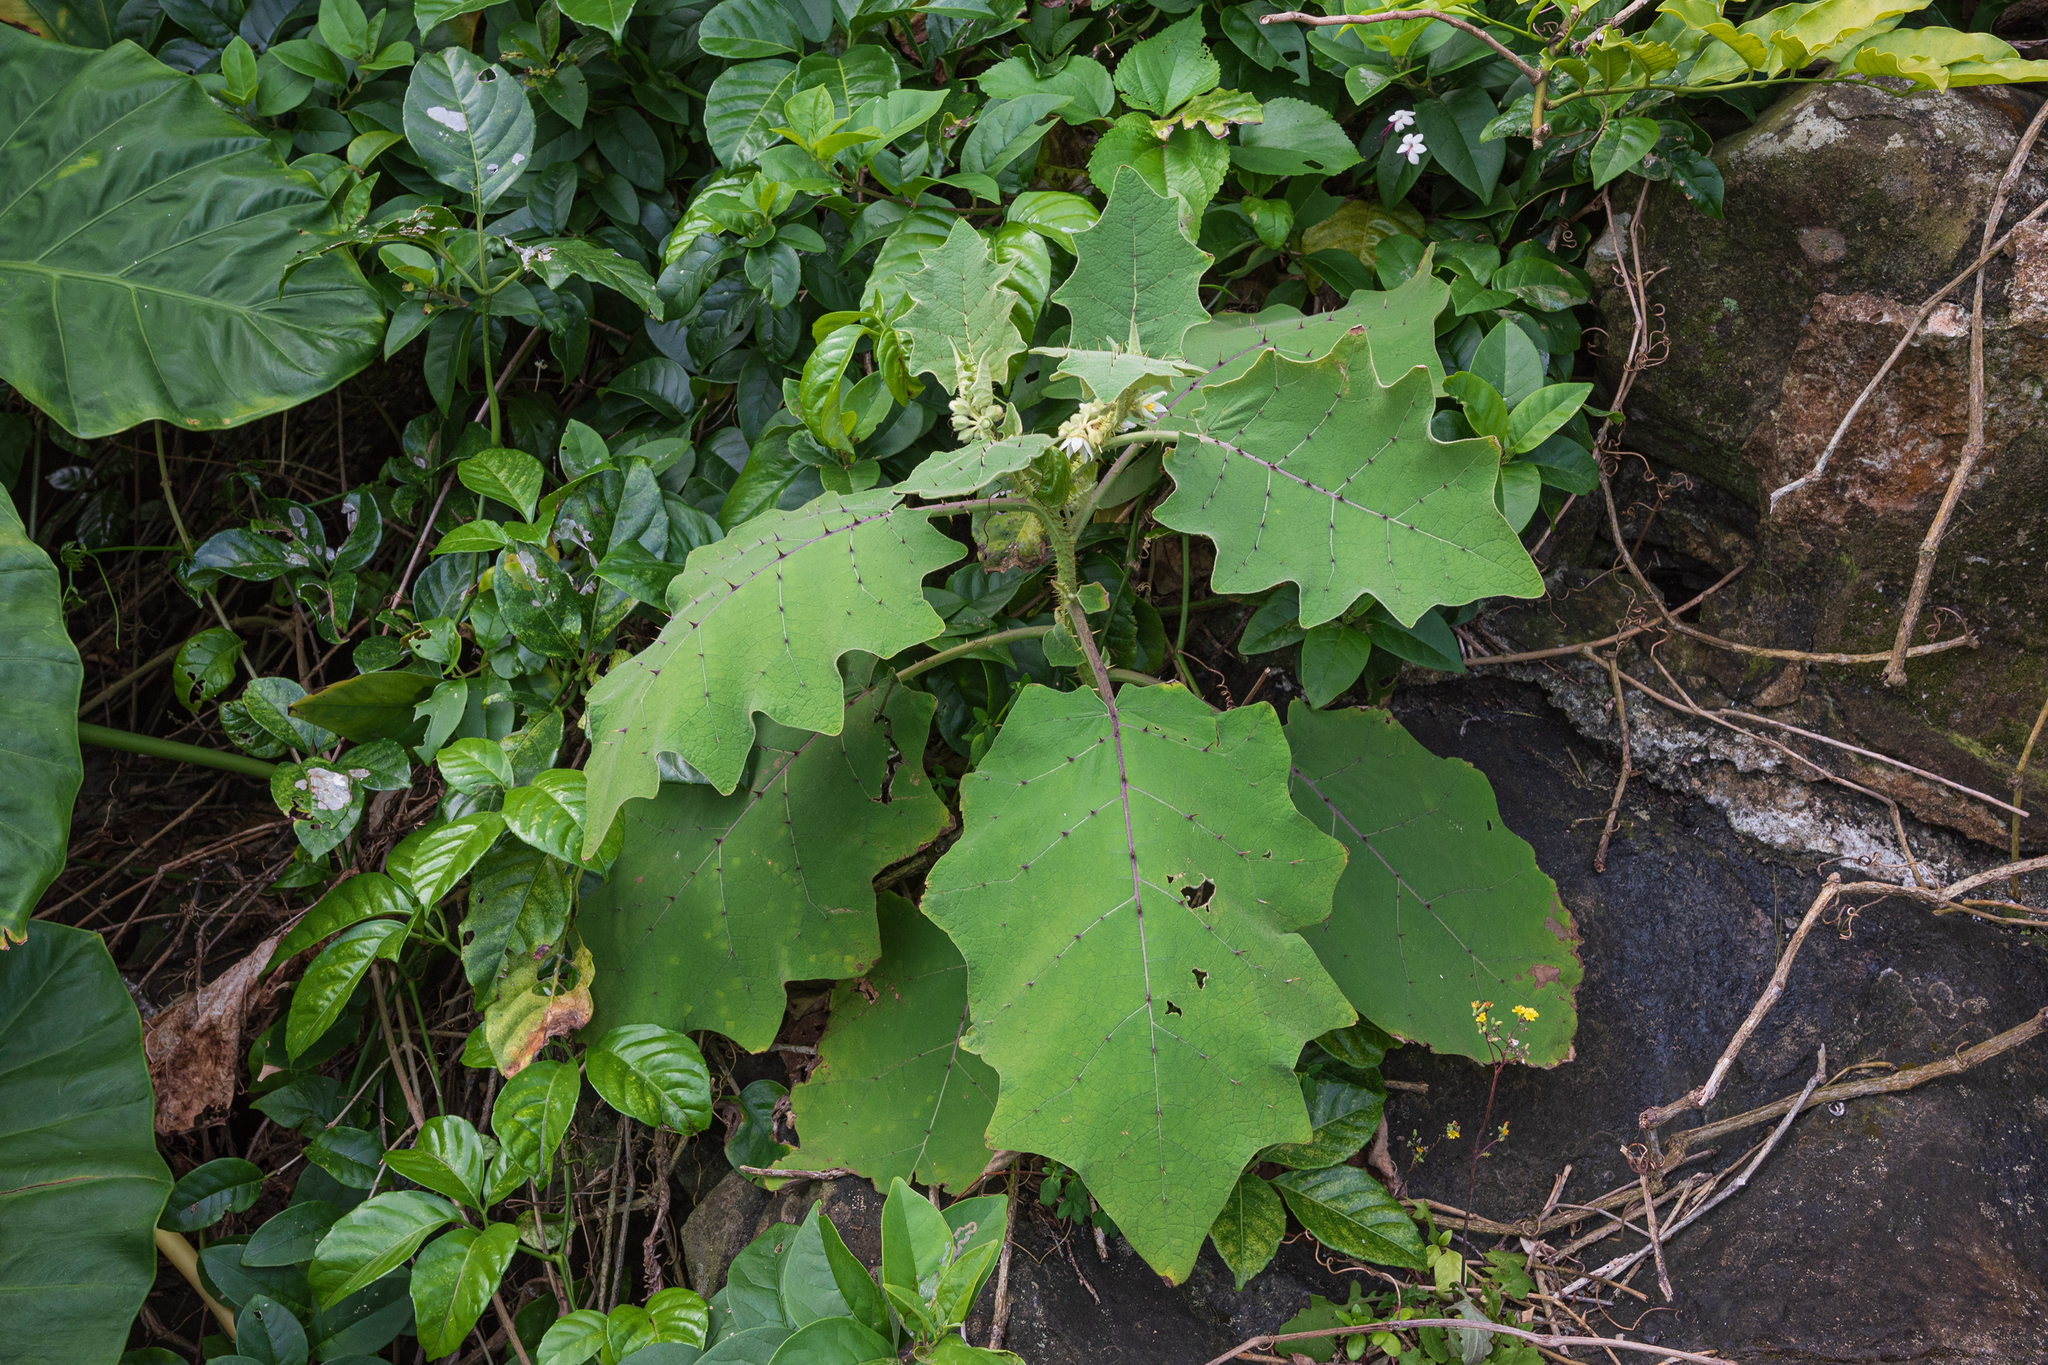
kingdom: Plantae
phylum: Tracheophyta
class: Magnoliopsida
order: Solanales
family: Solanaceae
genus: Solanum
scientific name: Solanum lasiocarpum
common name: Indian nightshade
